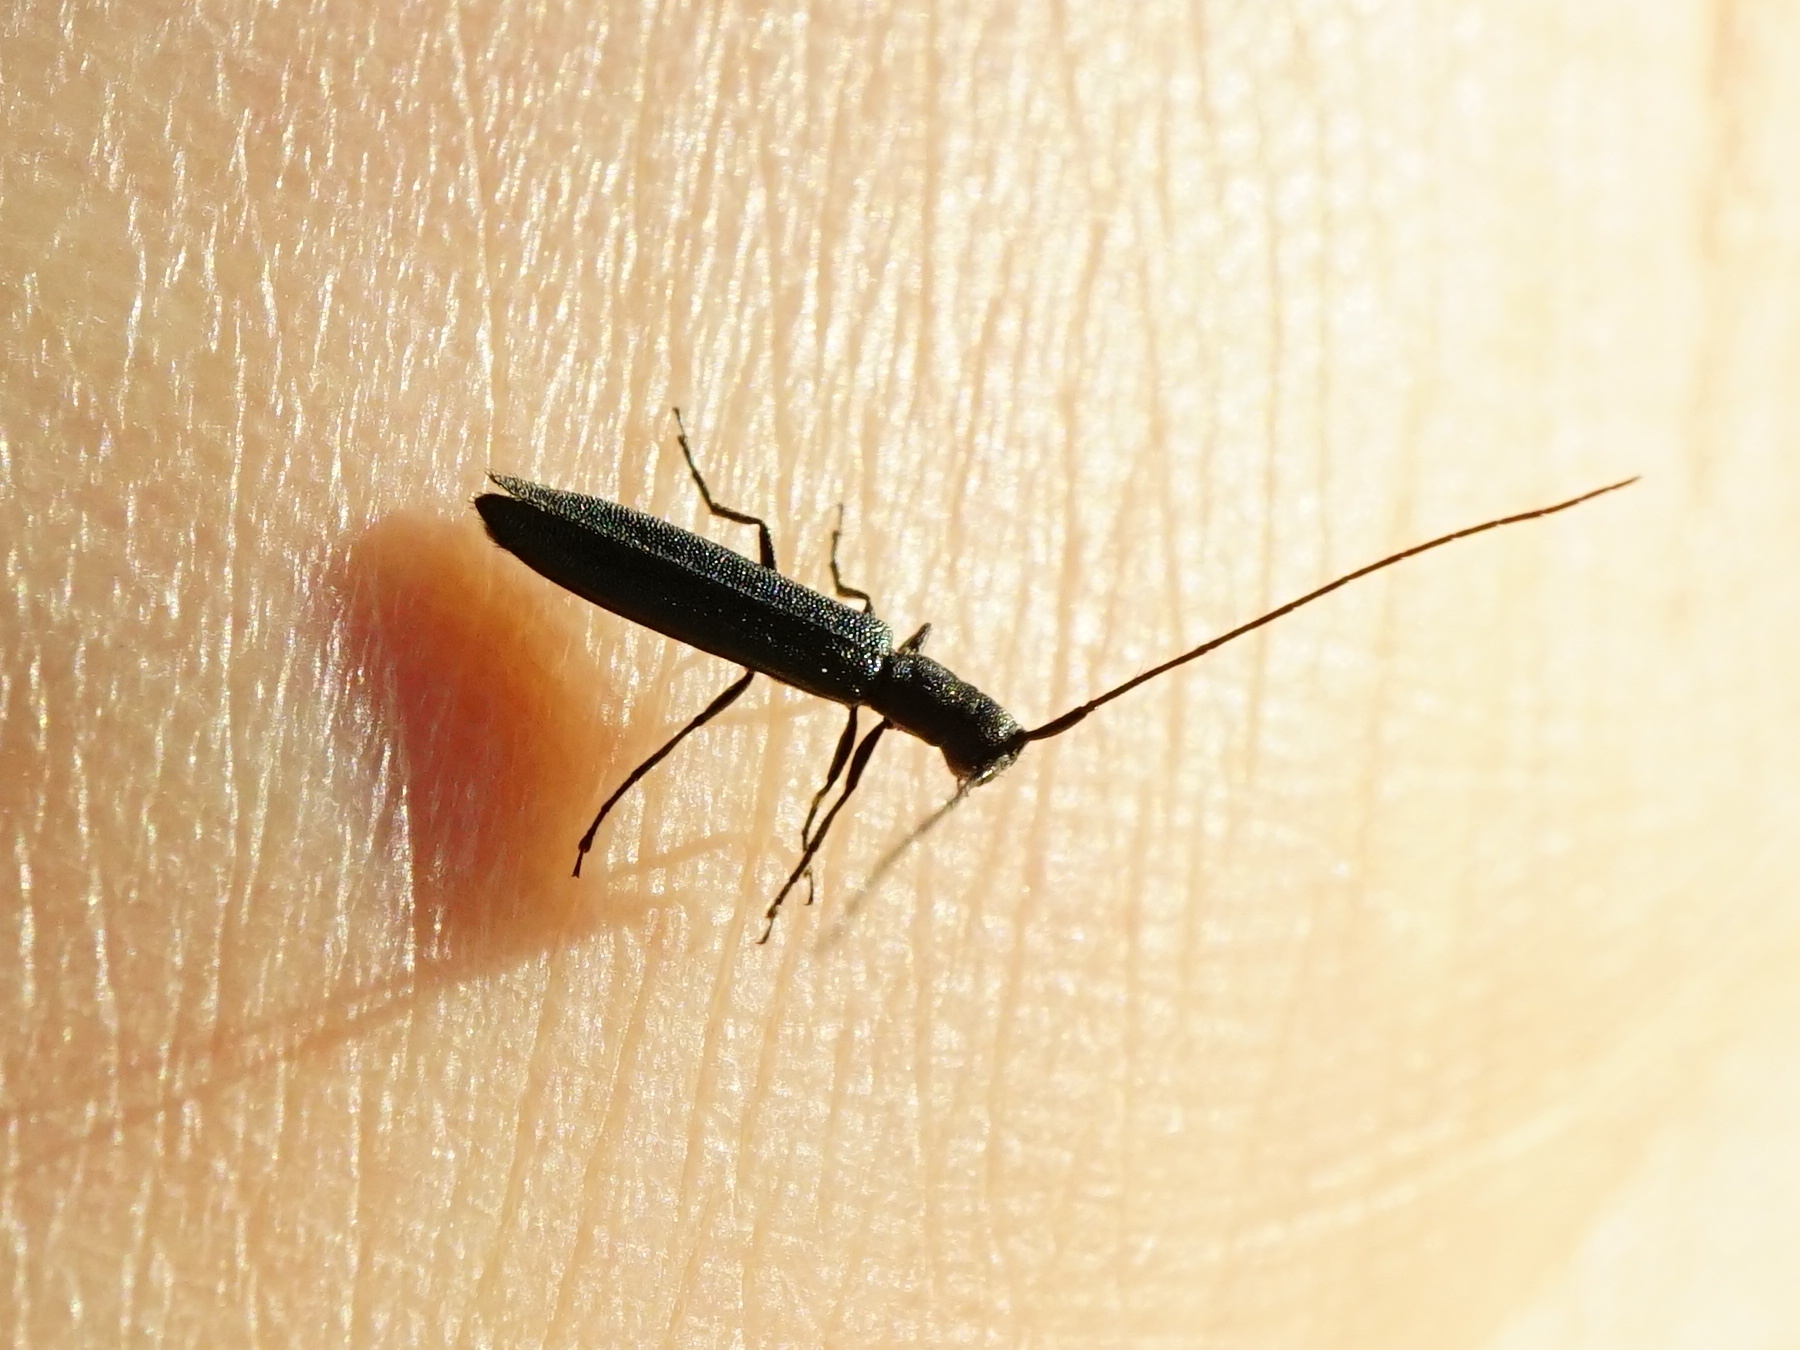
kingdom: Animalia
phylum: Arthropoda
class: Insecta
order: Coleoptera
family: Cerambycidae
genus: Theophilea
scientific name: Theophilea subcylindricollis
